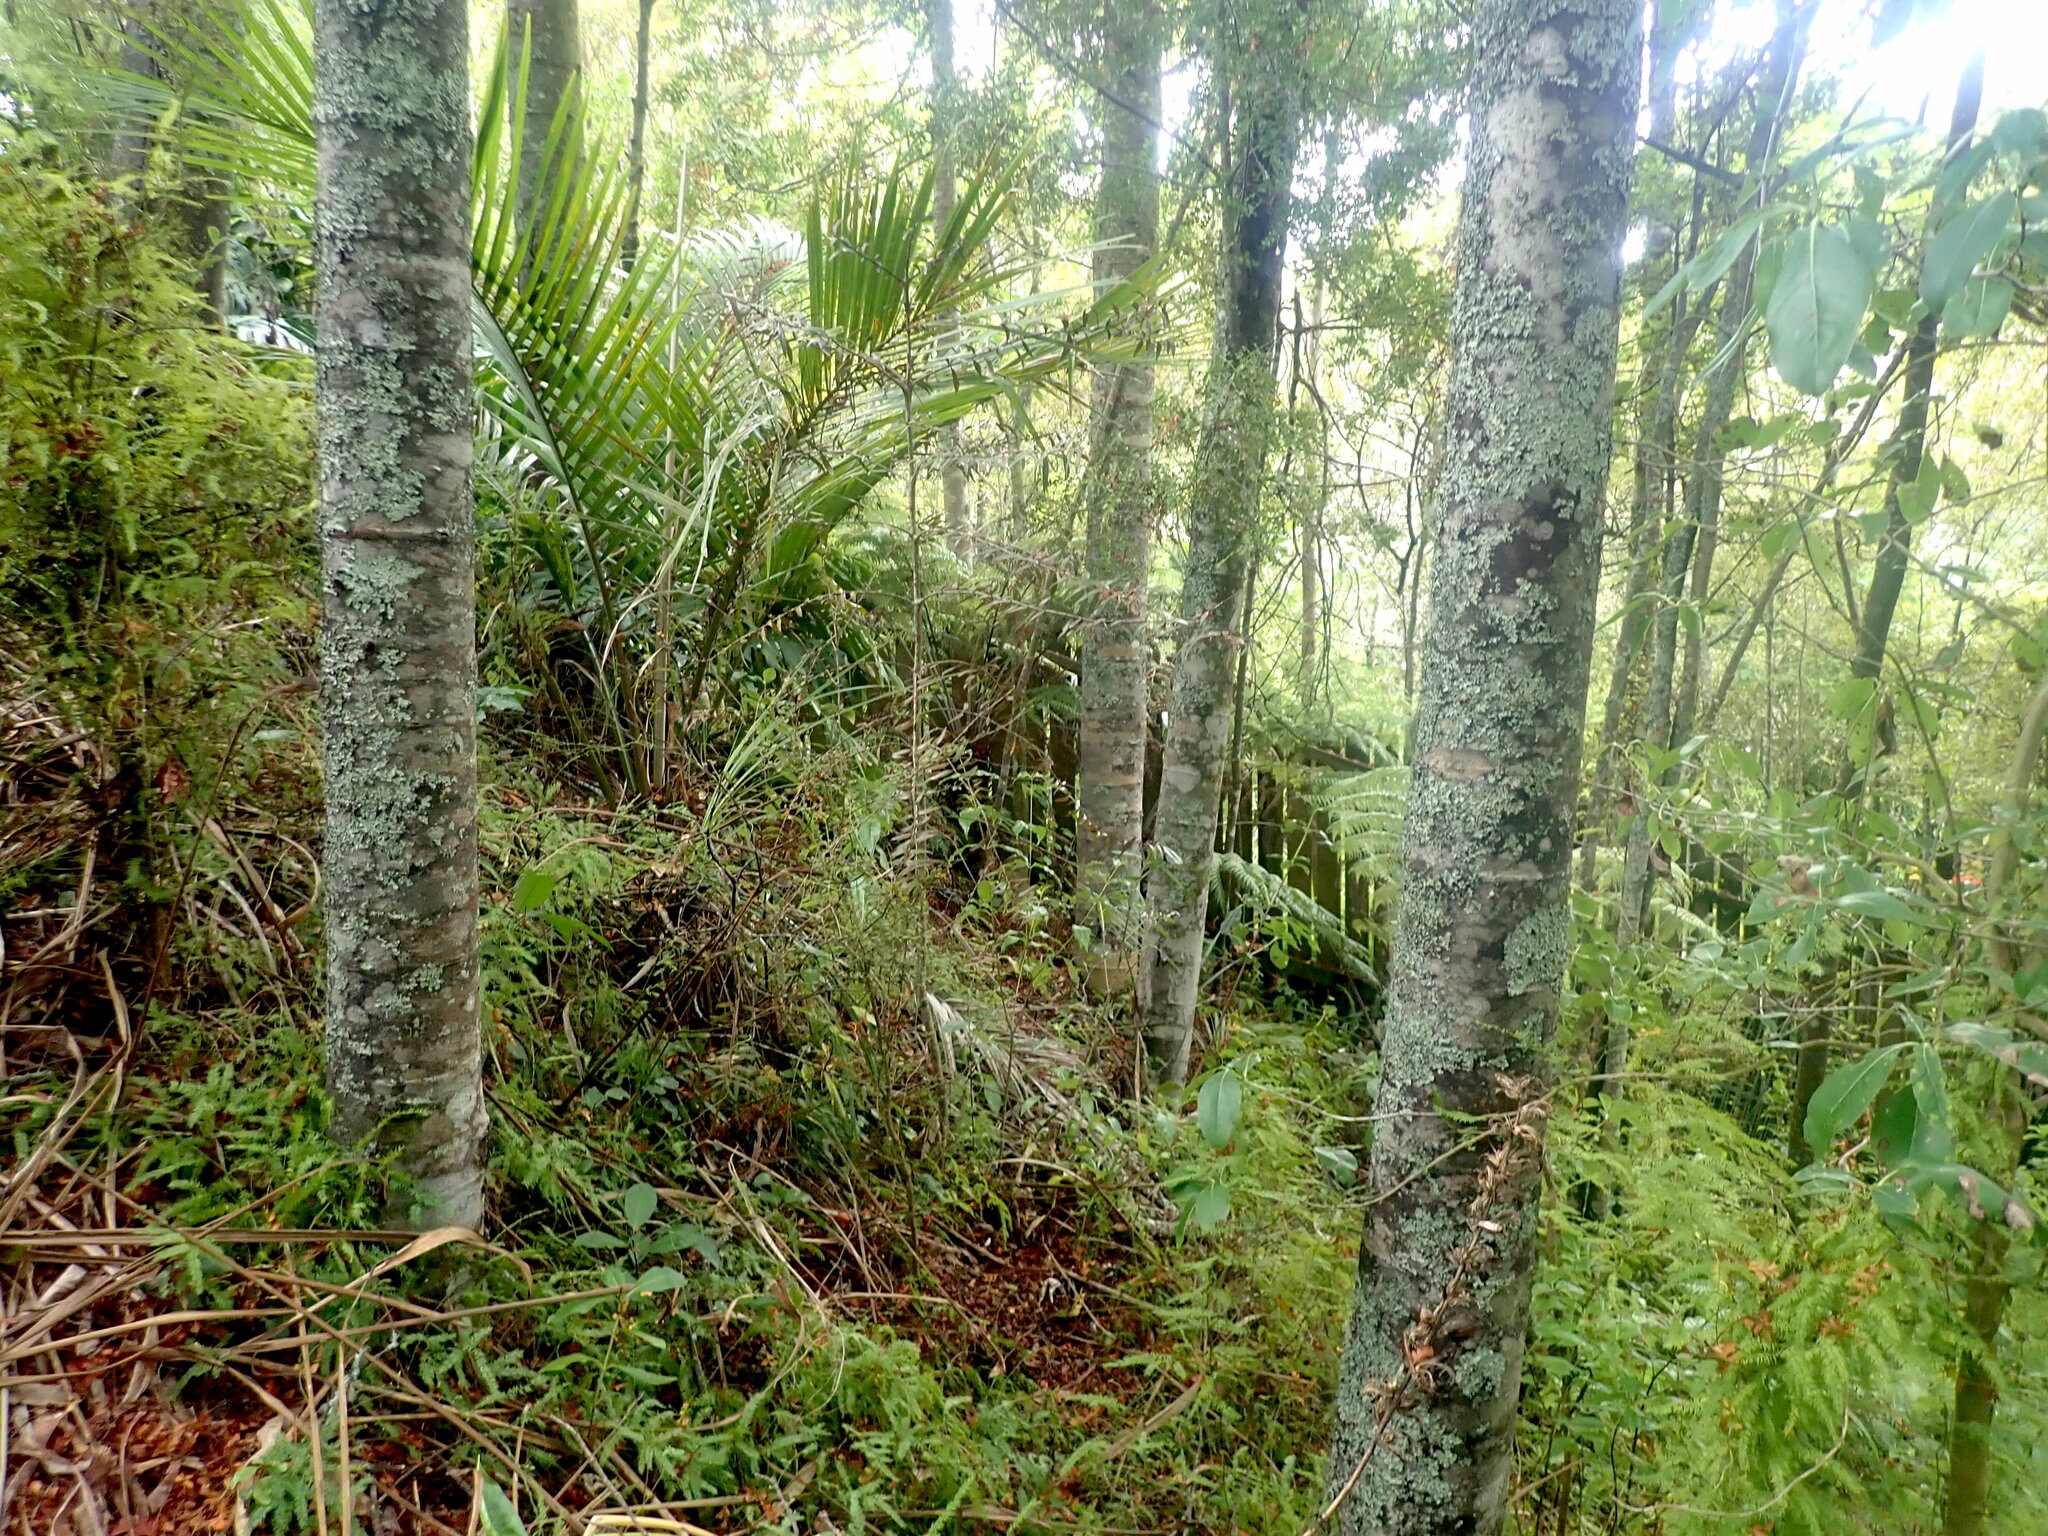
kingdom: Plantae
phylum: Tracheophyta
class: Liliopsida
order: Asparagales
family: Asparagaceae
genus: Asparagus
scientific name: Asparagus scandens
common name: Asparagus-fern
